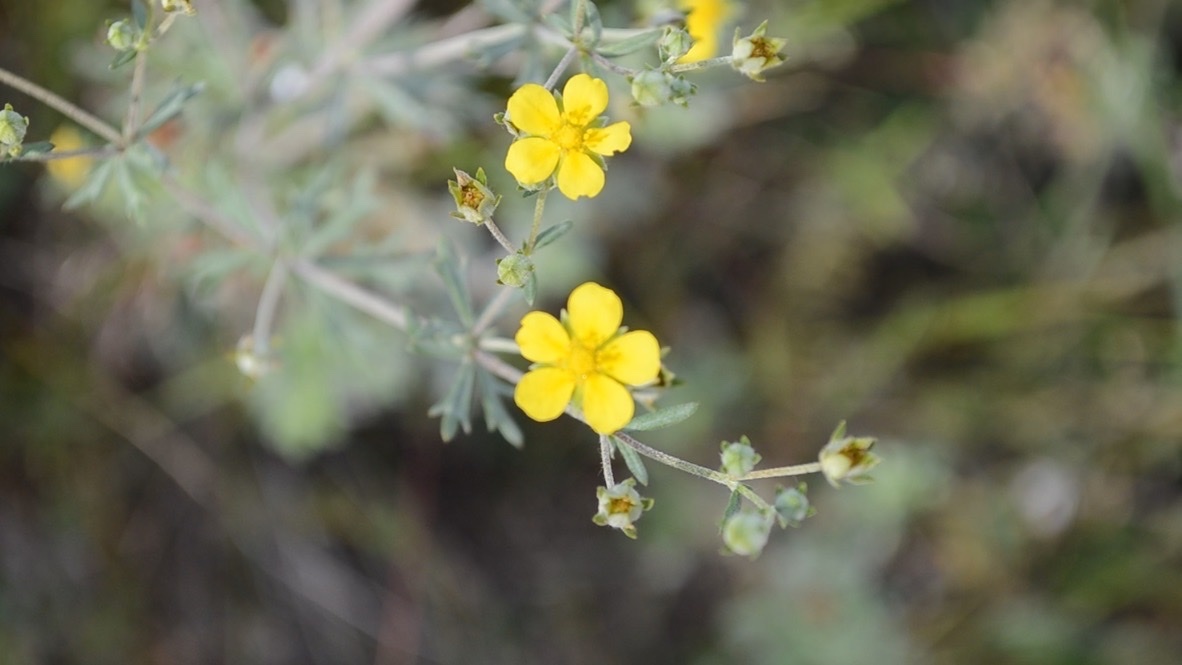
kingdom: Plantae
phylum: Tracheophyta
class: Magnoliopsida
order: Rosales
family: Rosaceae
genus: Potentilla
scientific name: Potentilla argentea
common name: Hoary cinquefoil
